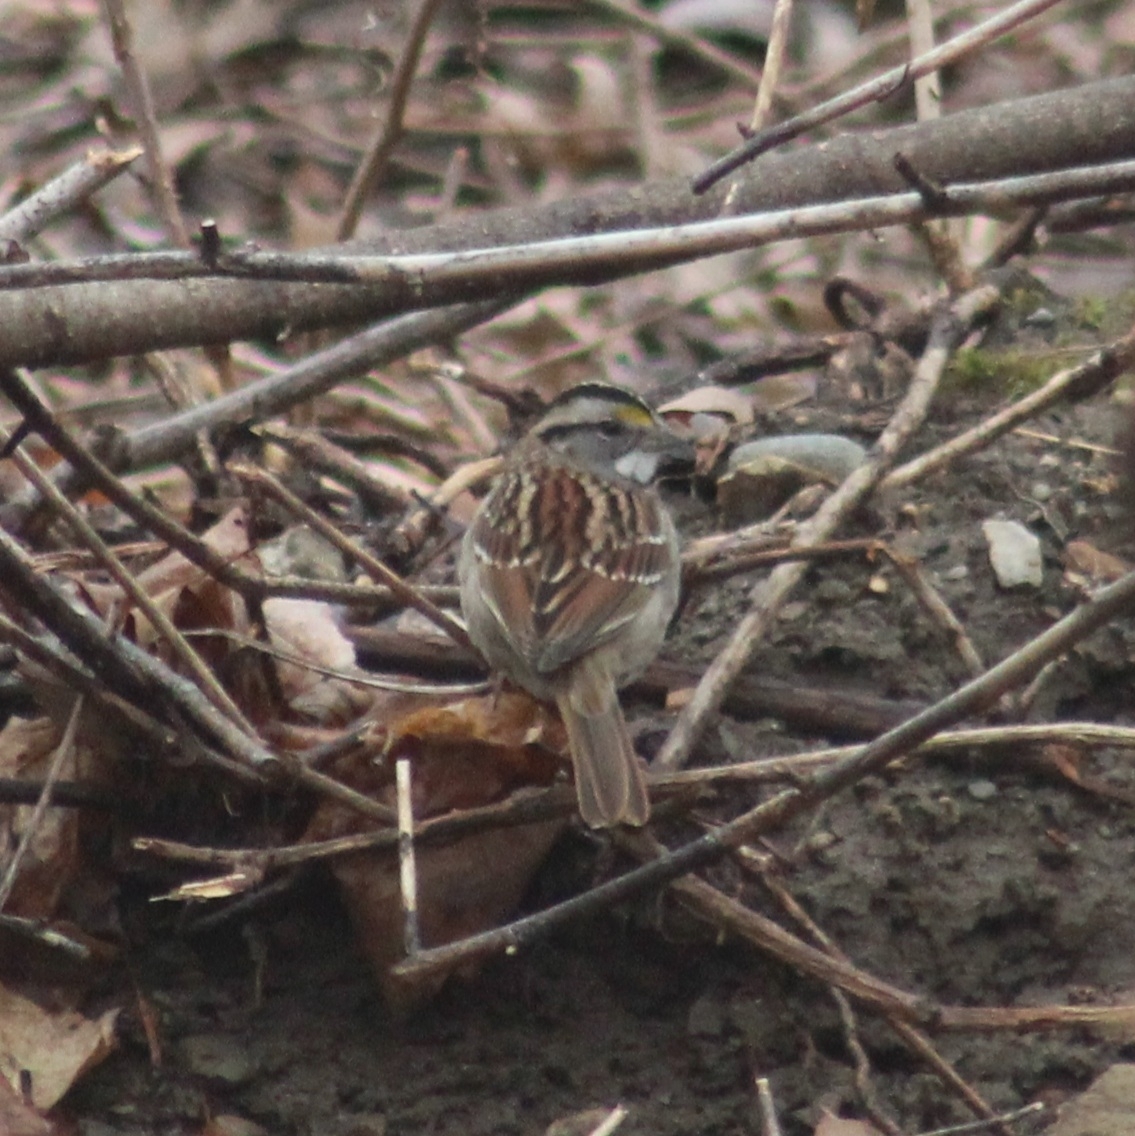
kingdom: Animalia
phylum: Chordata
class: Aves
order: Passeriformes
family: Passerellidae
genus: Zonotrichia
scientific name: Zonotrichia albicollis
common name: White-throated sparrow
